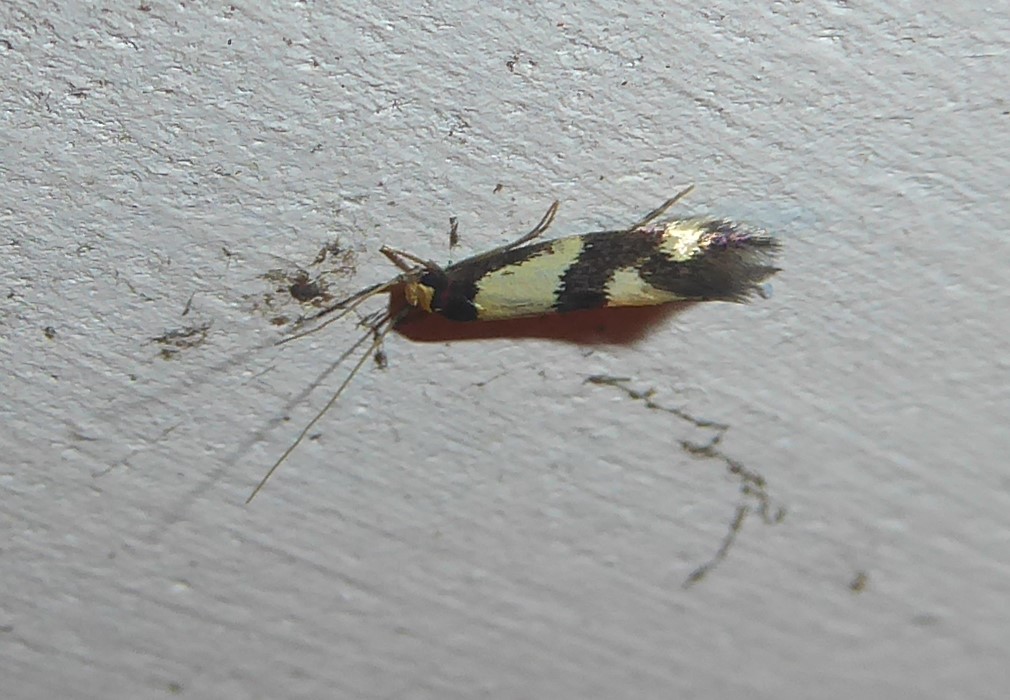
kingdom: Animalia
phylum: Arthropoda
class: Insecta
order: Lepidoptera
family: Tineidae
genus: Opogona
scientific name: Opogona comptella
